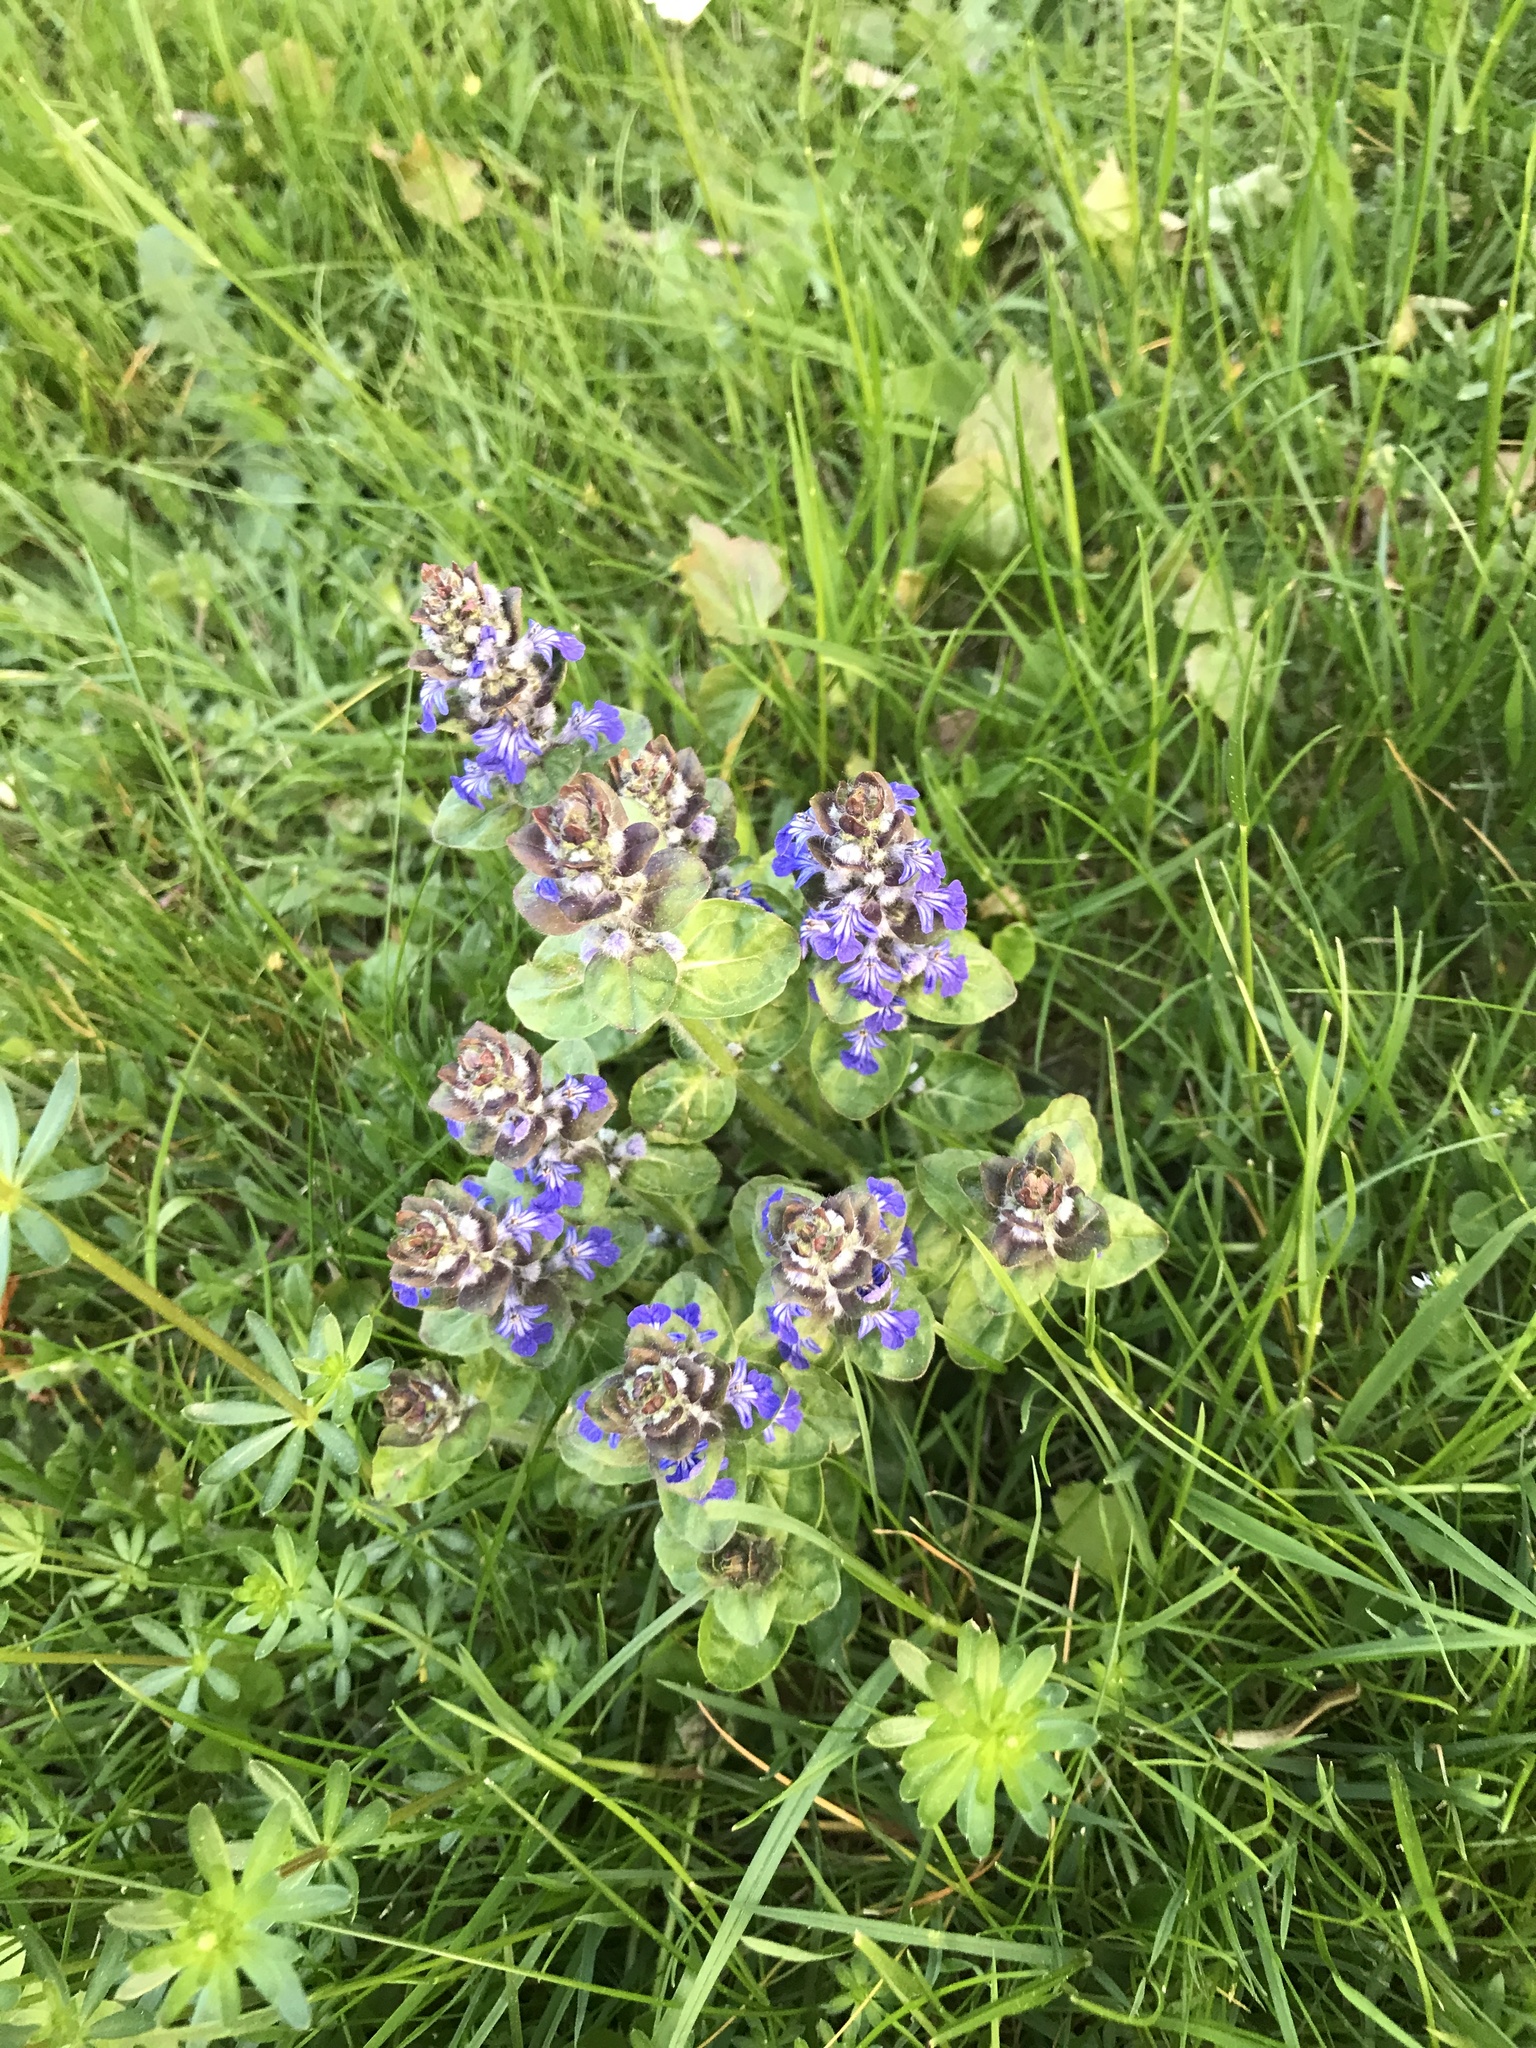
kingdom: Plantae
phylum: Tracheophyta
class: Magnoliopsida
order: Lamiales
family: Lamiaceae
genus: Ajuga
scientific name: Ajuga reptans
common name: Bugle
